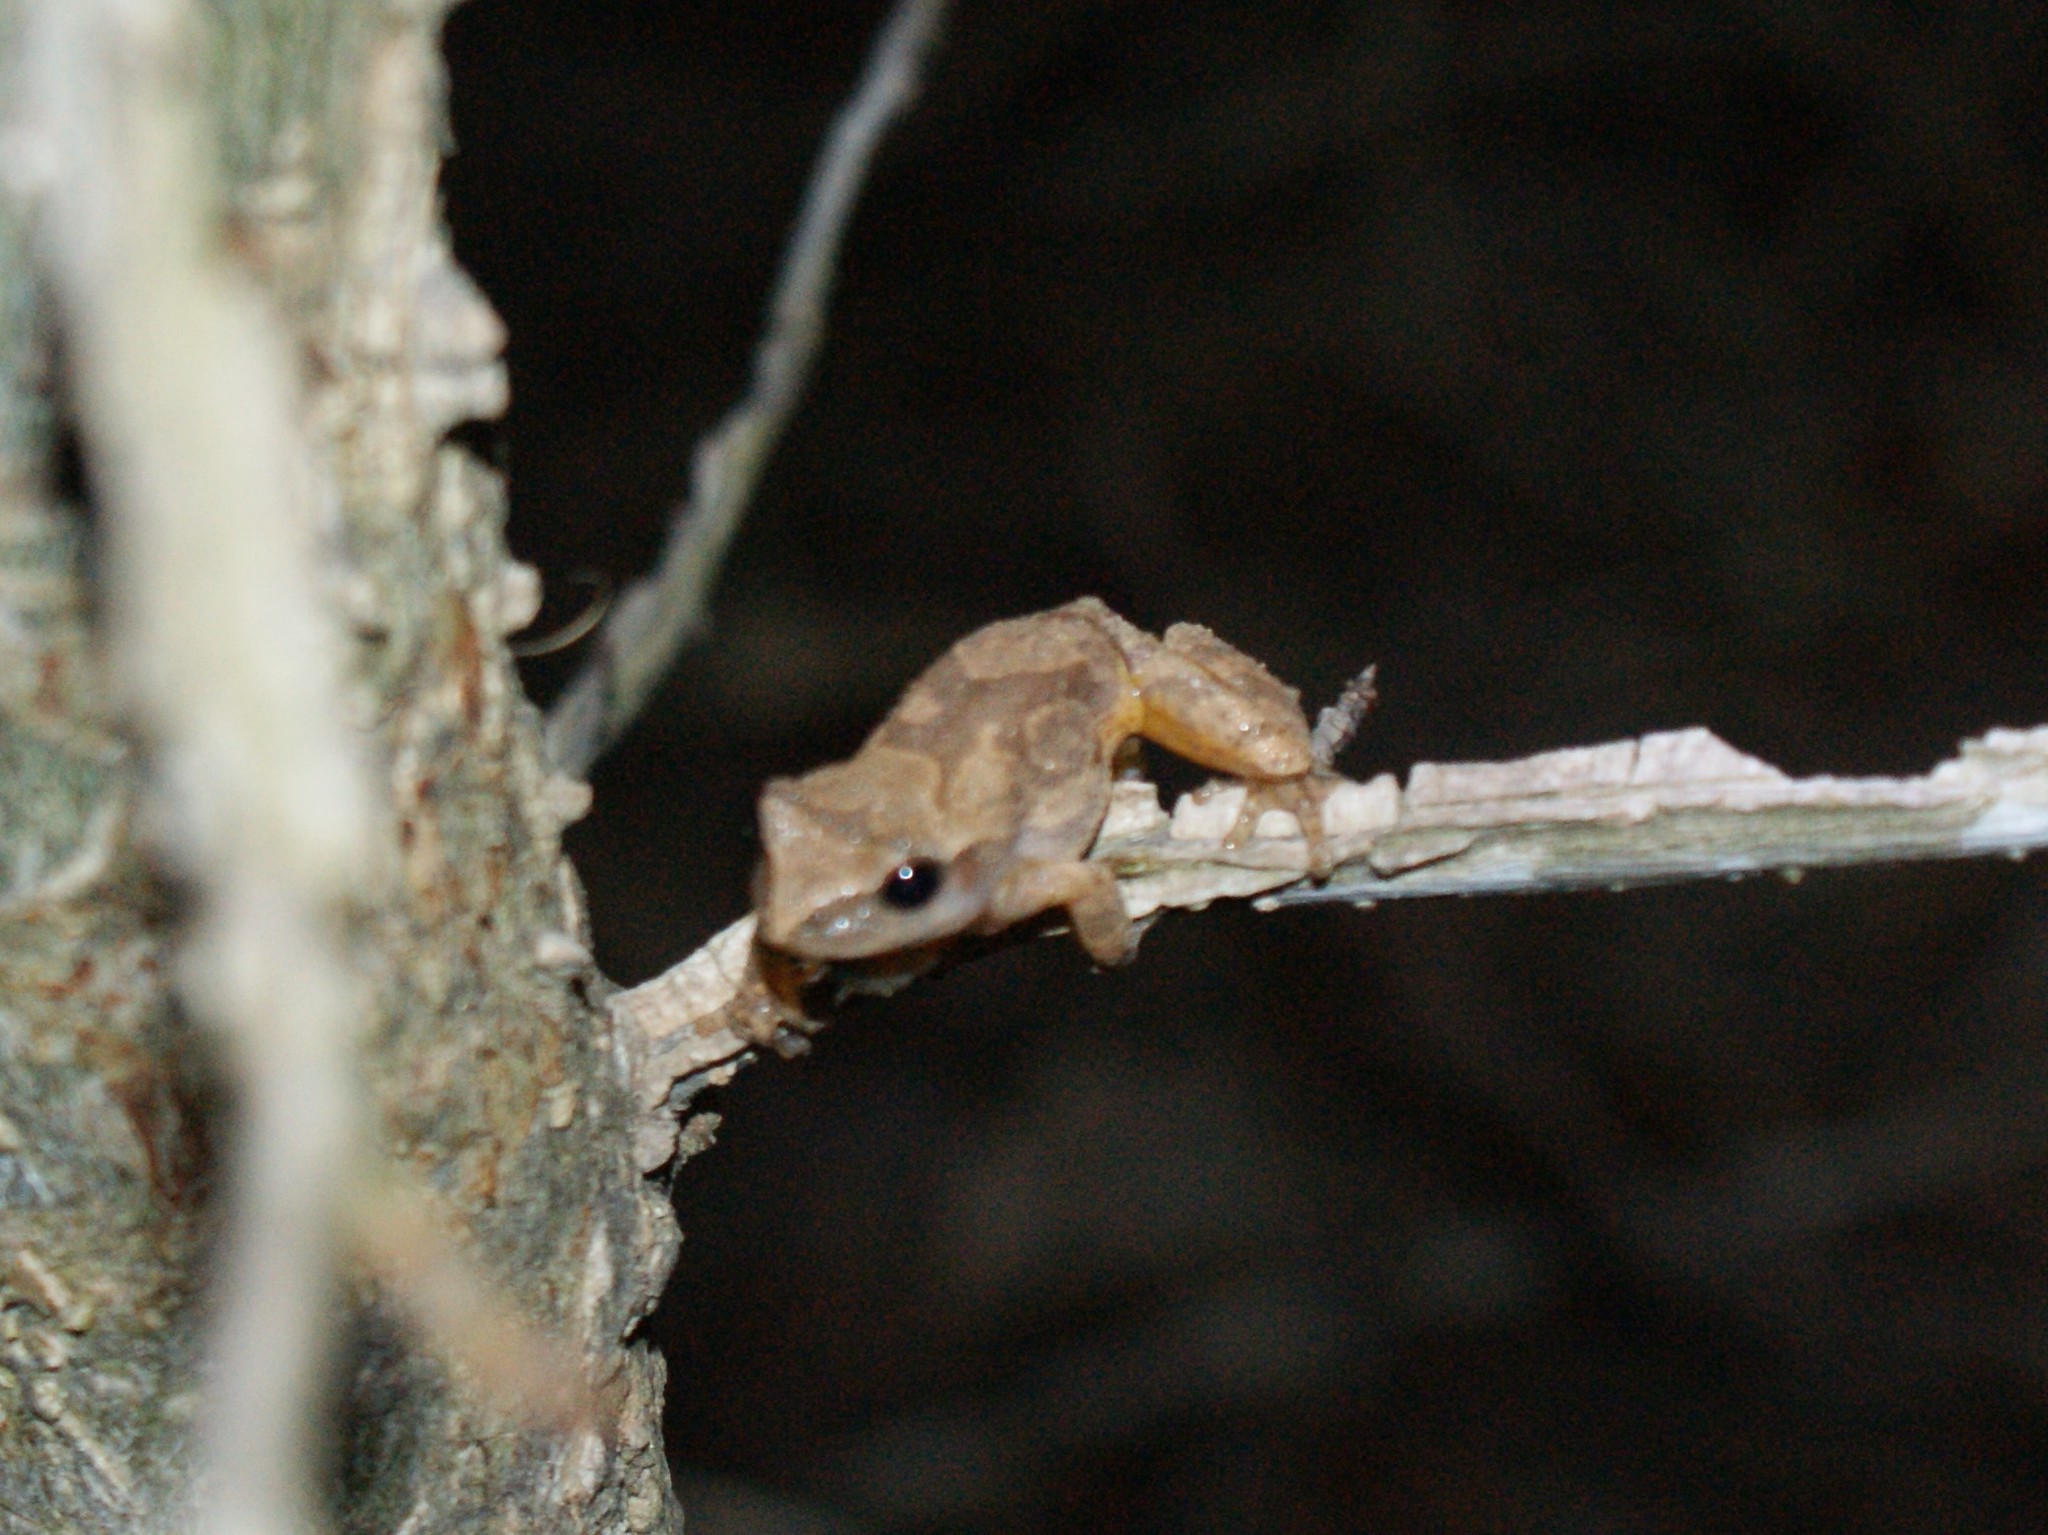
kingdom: Animalia
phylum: Chordata
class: Amphibia
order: Anura
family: Hylidae
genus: Pseudacris
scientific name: Pseudacris crucifer
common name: Spring peeper
